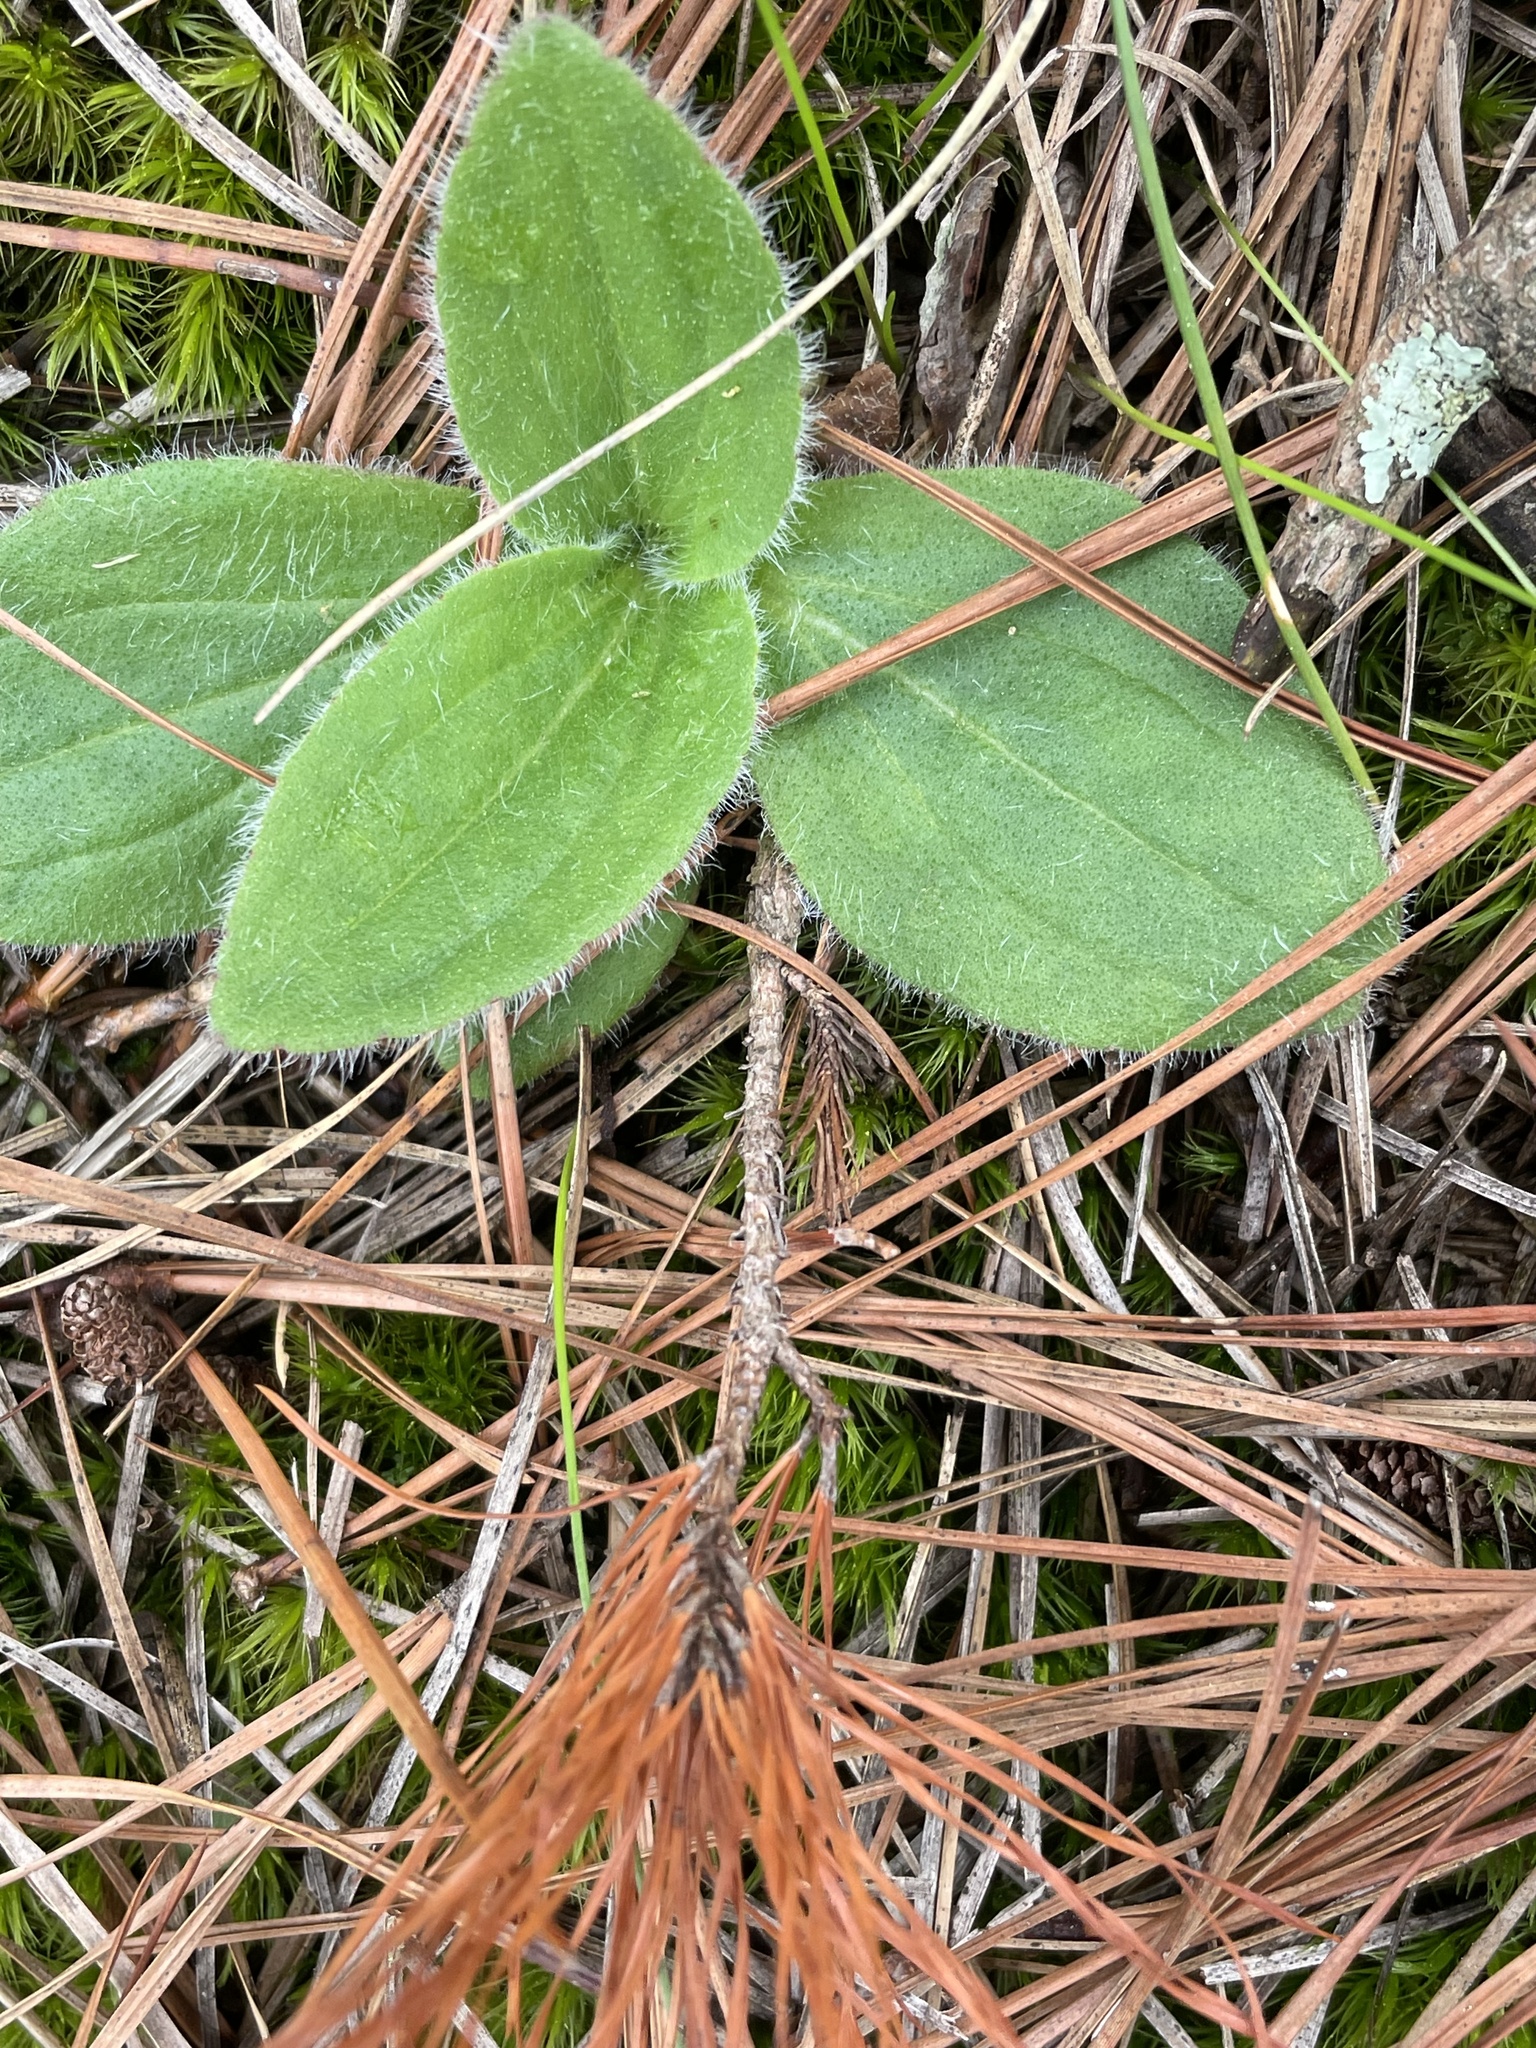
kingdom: Plantae
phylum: Tracheophyta
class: Magnoliopsida
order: Asterales
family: Asteraceae
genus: Arnica
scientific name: Arnica acaulis
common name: Common leopardbane
